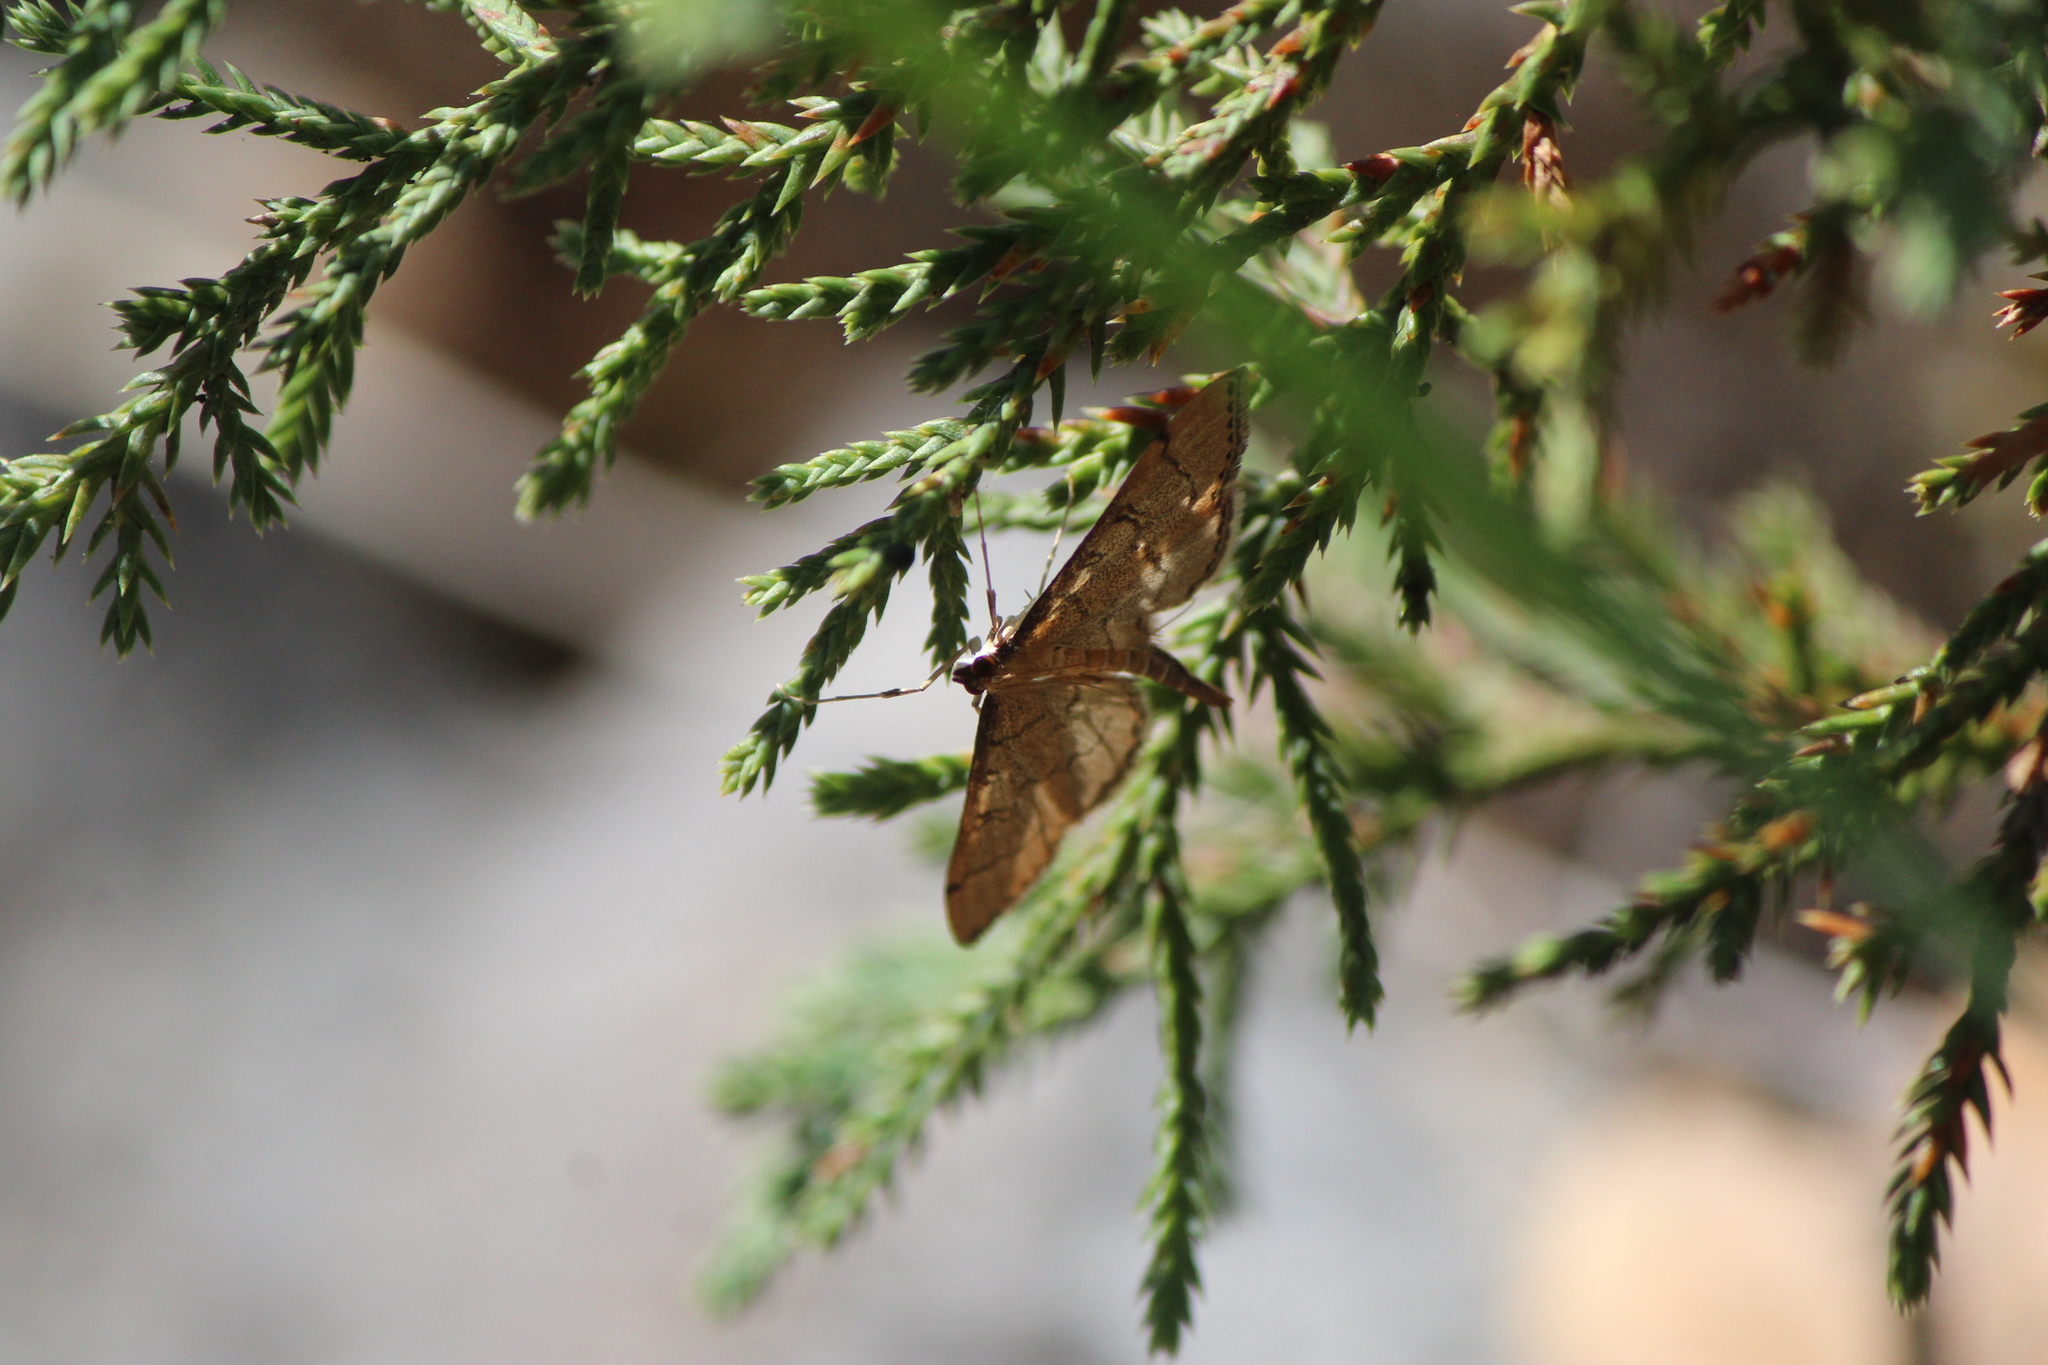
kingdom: Animalia
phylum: Arthropoda
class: Insecta
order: Lepidoptera
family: Crambidae
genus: Lamprosema
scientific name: Lamprosema Blepharomastix ranalis
